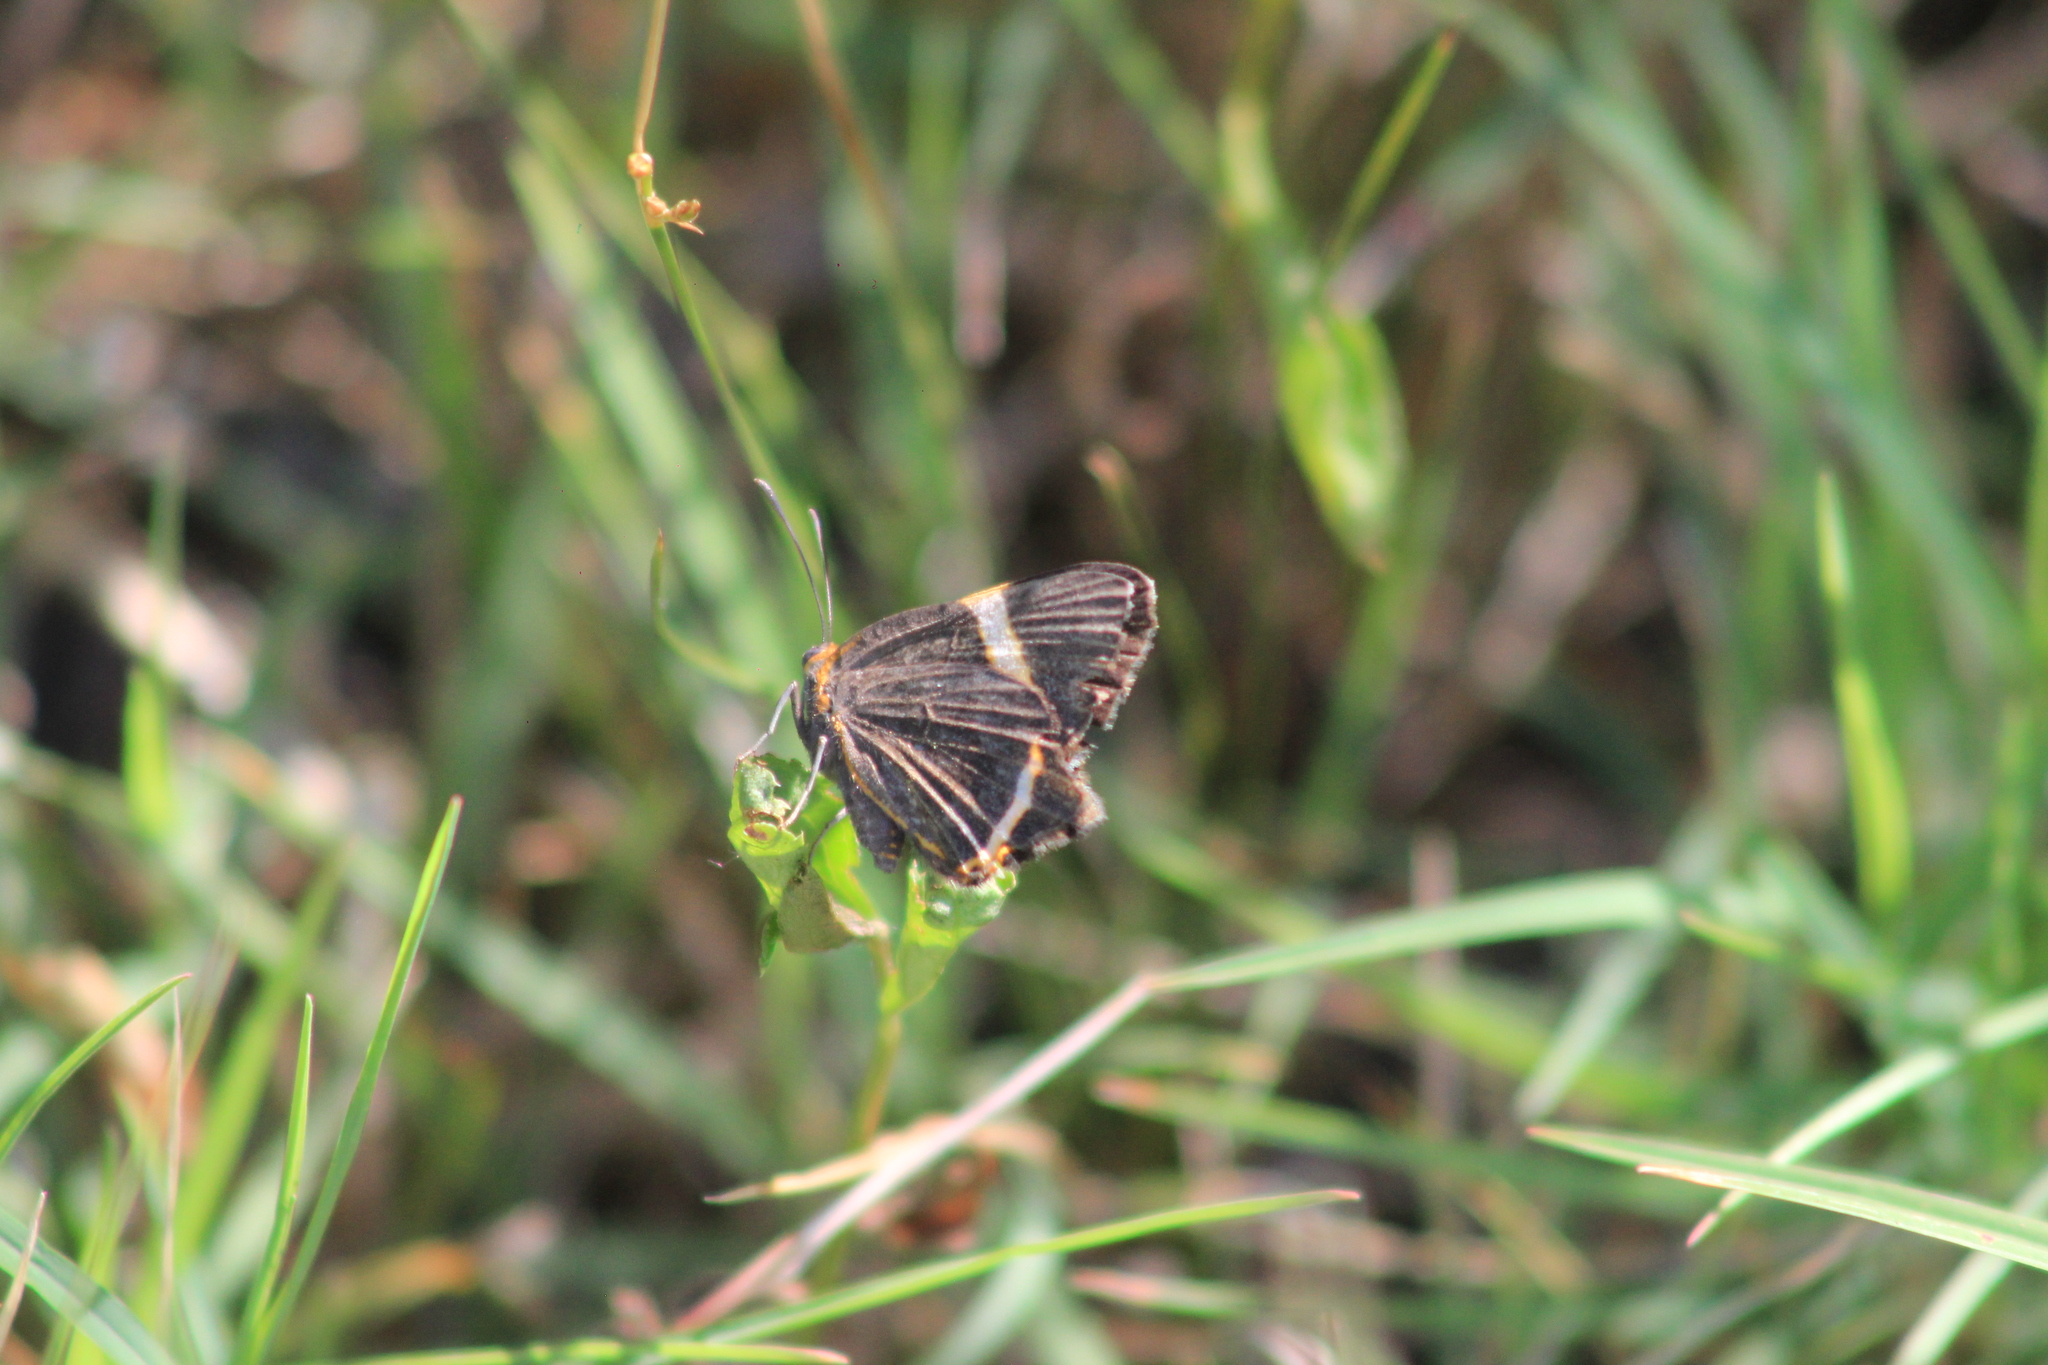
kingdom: Animalia
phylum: Arthropoda
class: Insecta
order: Lepidoptera
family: Riodinidae
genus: Riodina
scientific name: Riodina lysippoides
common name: Little dancer metalmark
